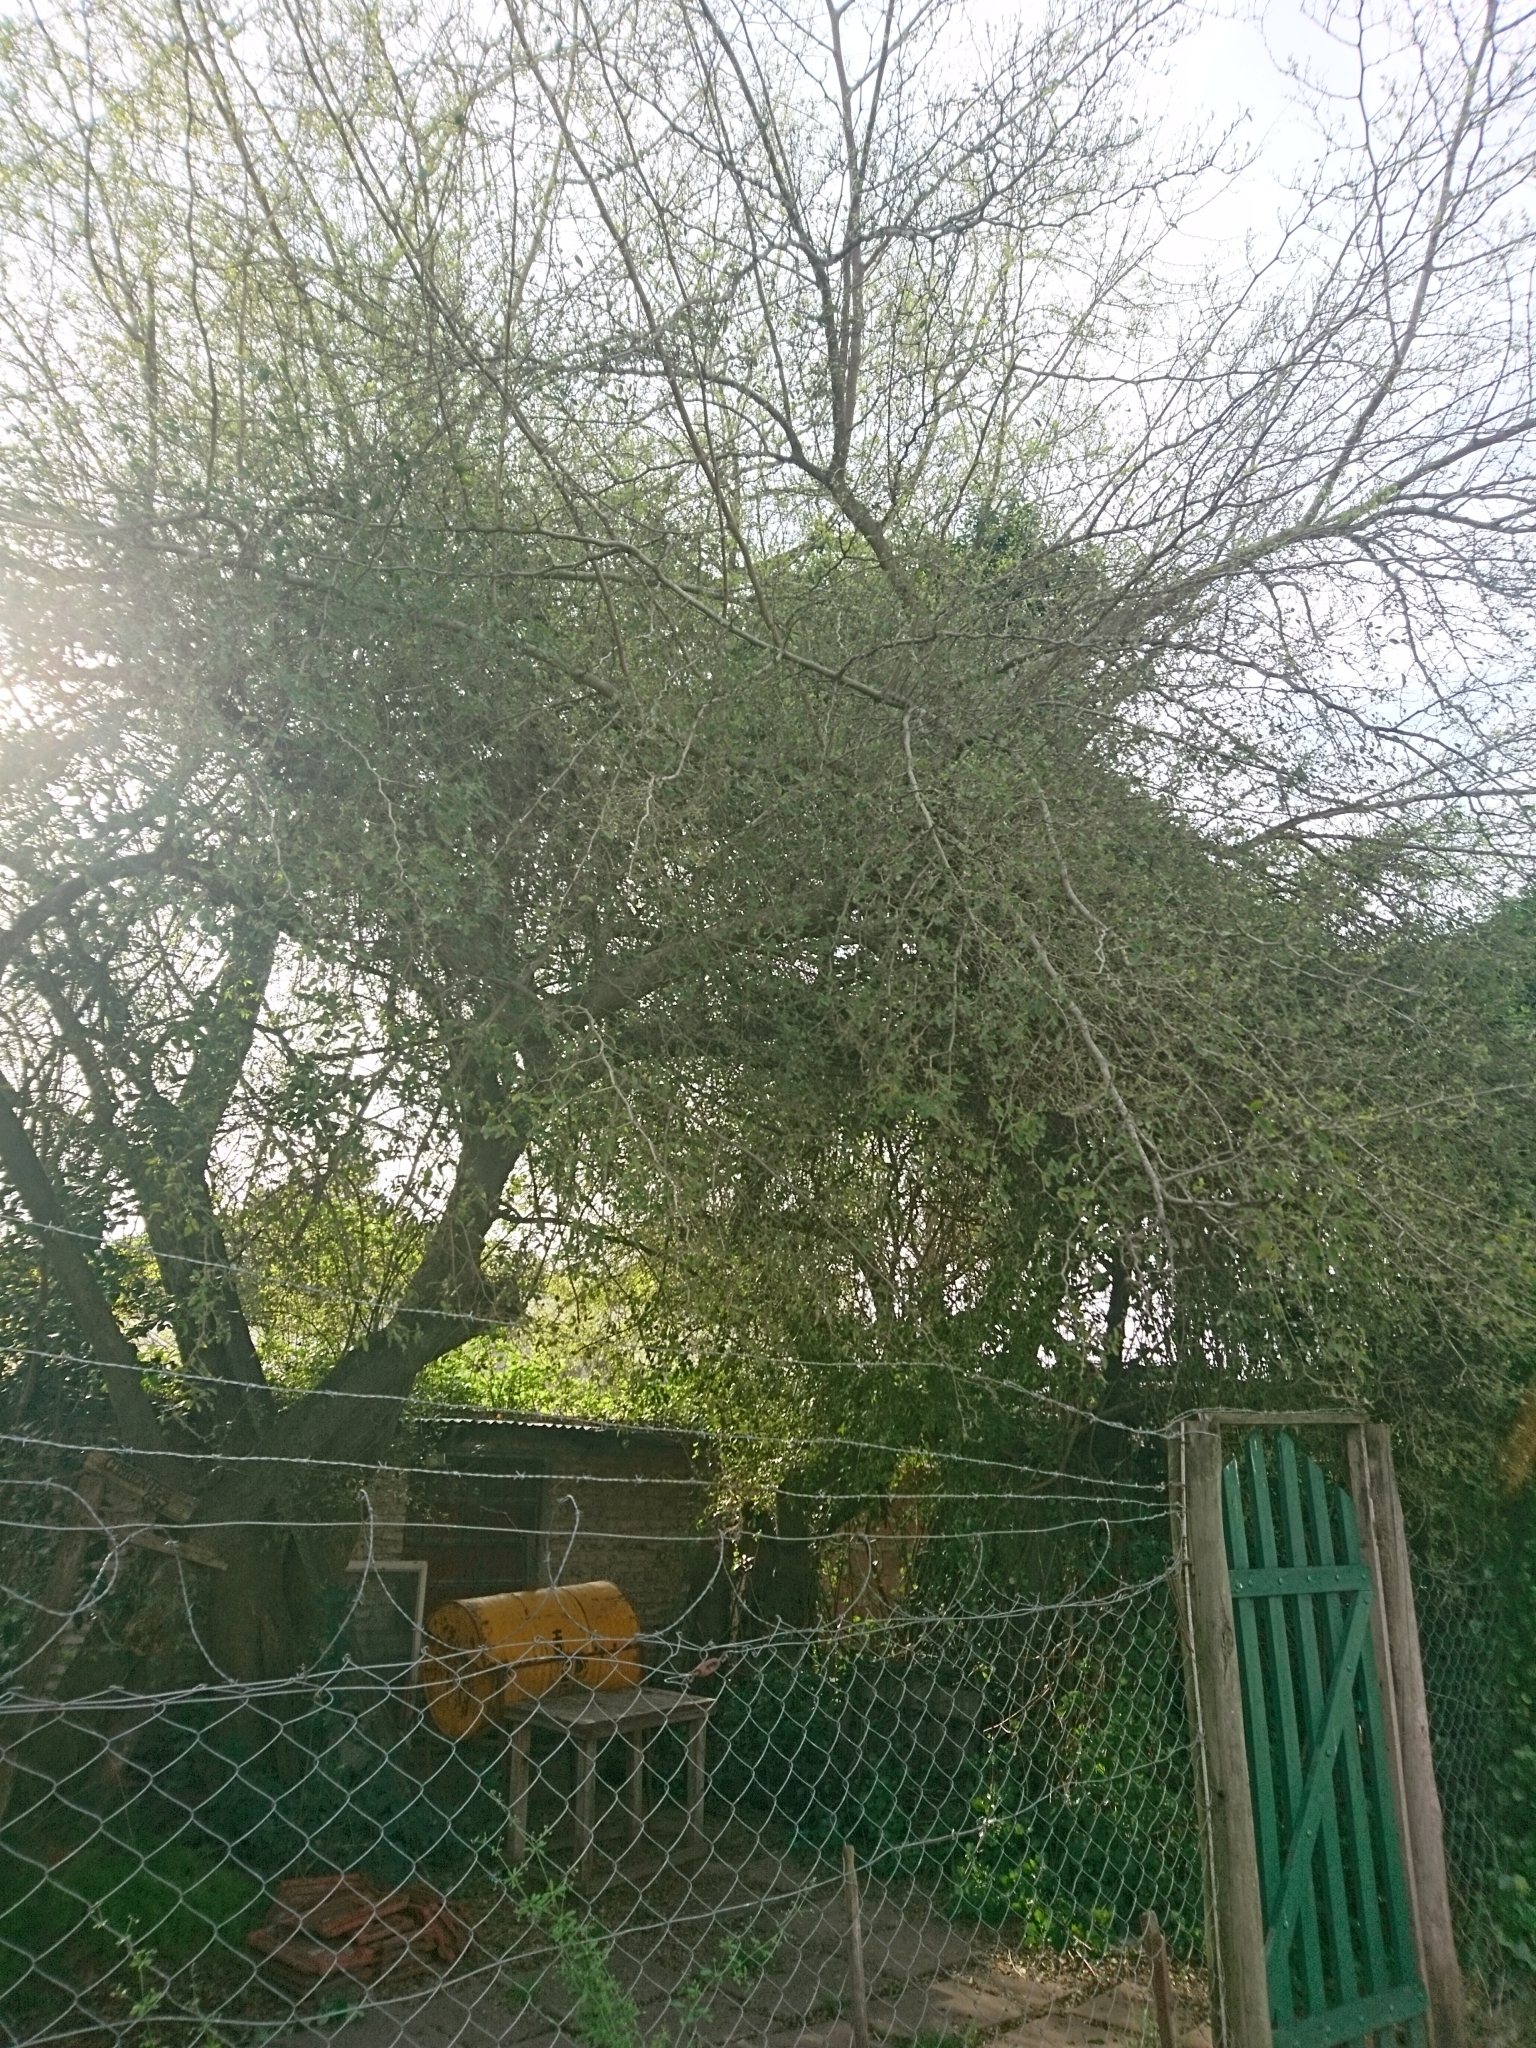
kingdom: Plantae
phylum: Tracheophyta
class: Magnoliopsida
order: Rosales
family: Cannabaceae
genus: Celtis
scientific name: Celtis tala
